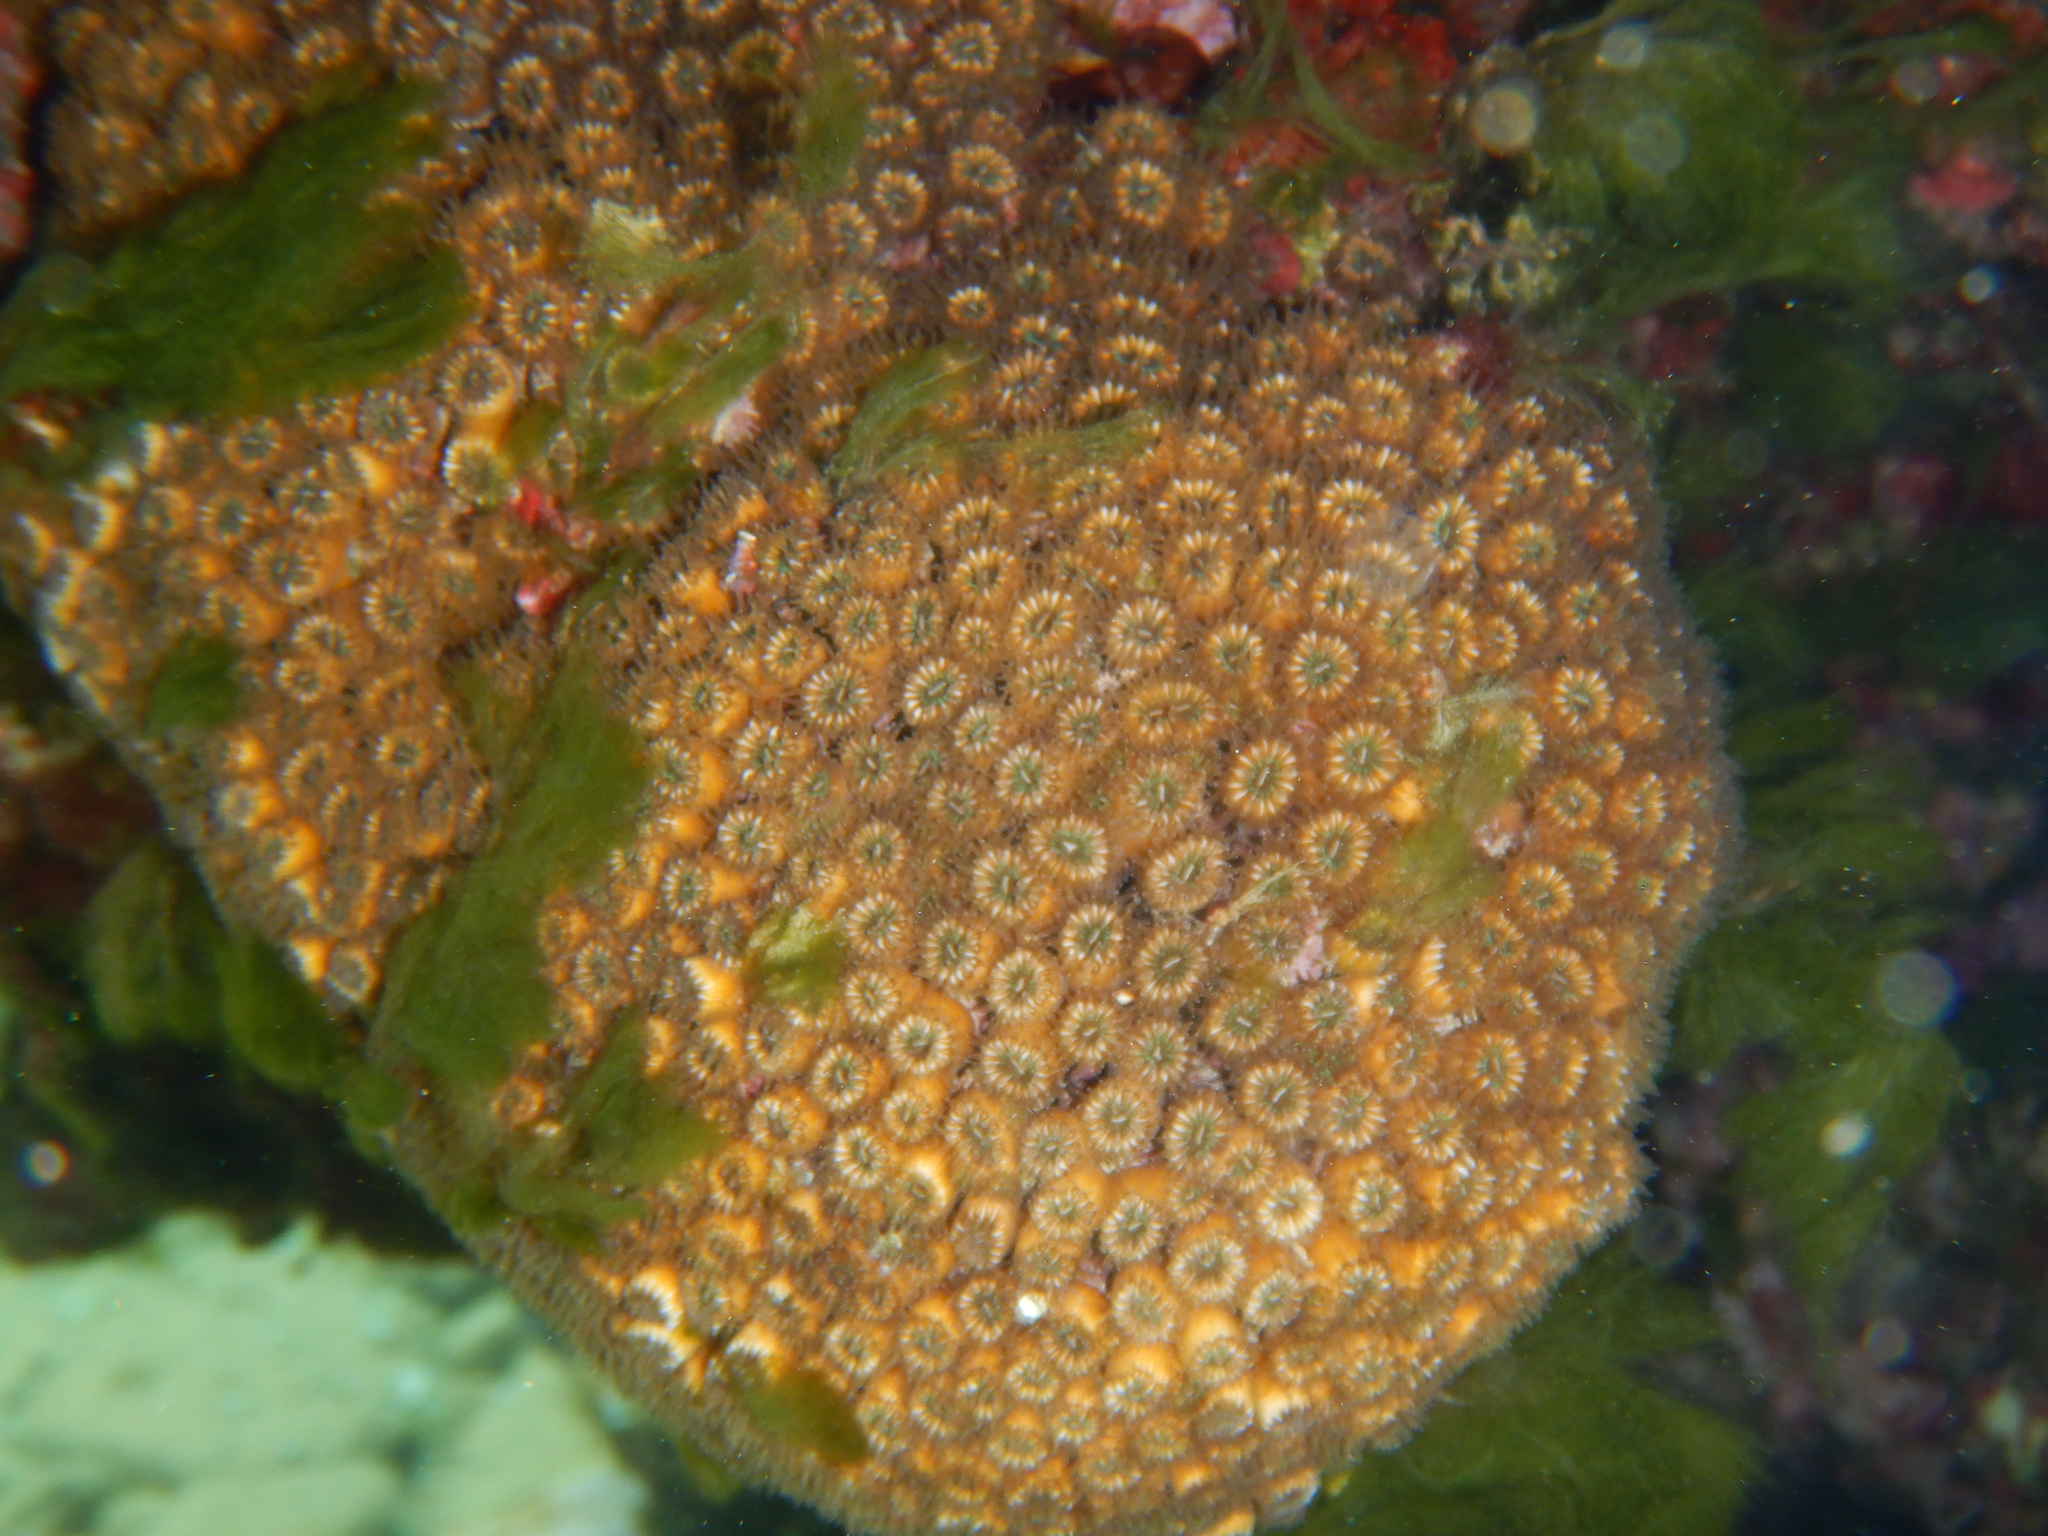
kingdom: Animalia
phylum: Cnidaria
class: Anthozoa
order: Scleractinia
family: Cladocoridae
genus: Cladocora
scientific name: Cladocora caespitosa
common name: Cladocora
